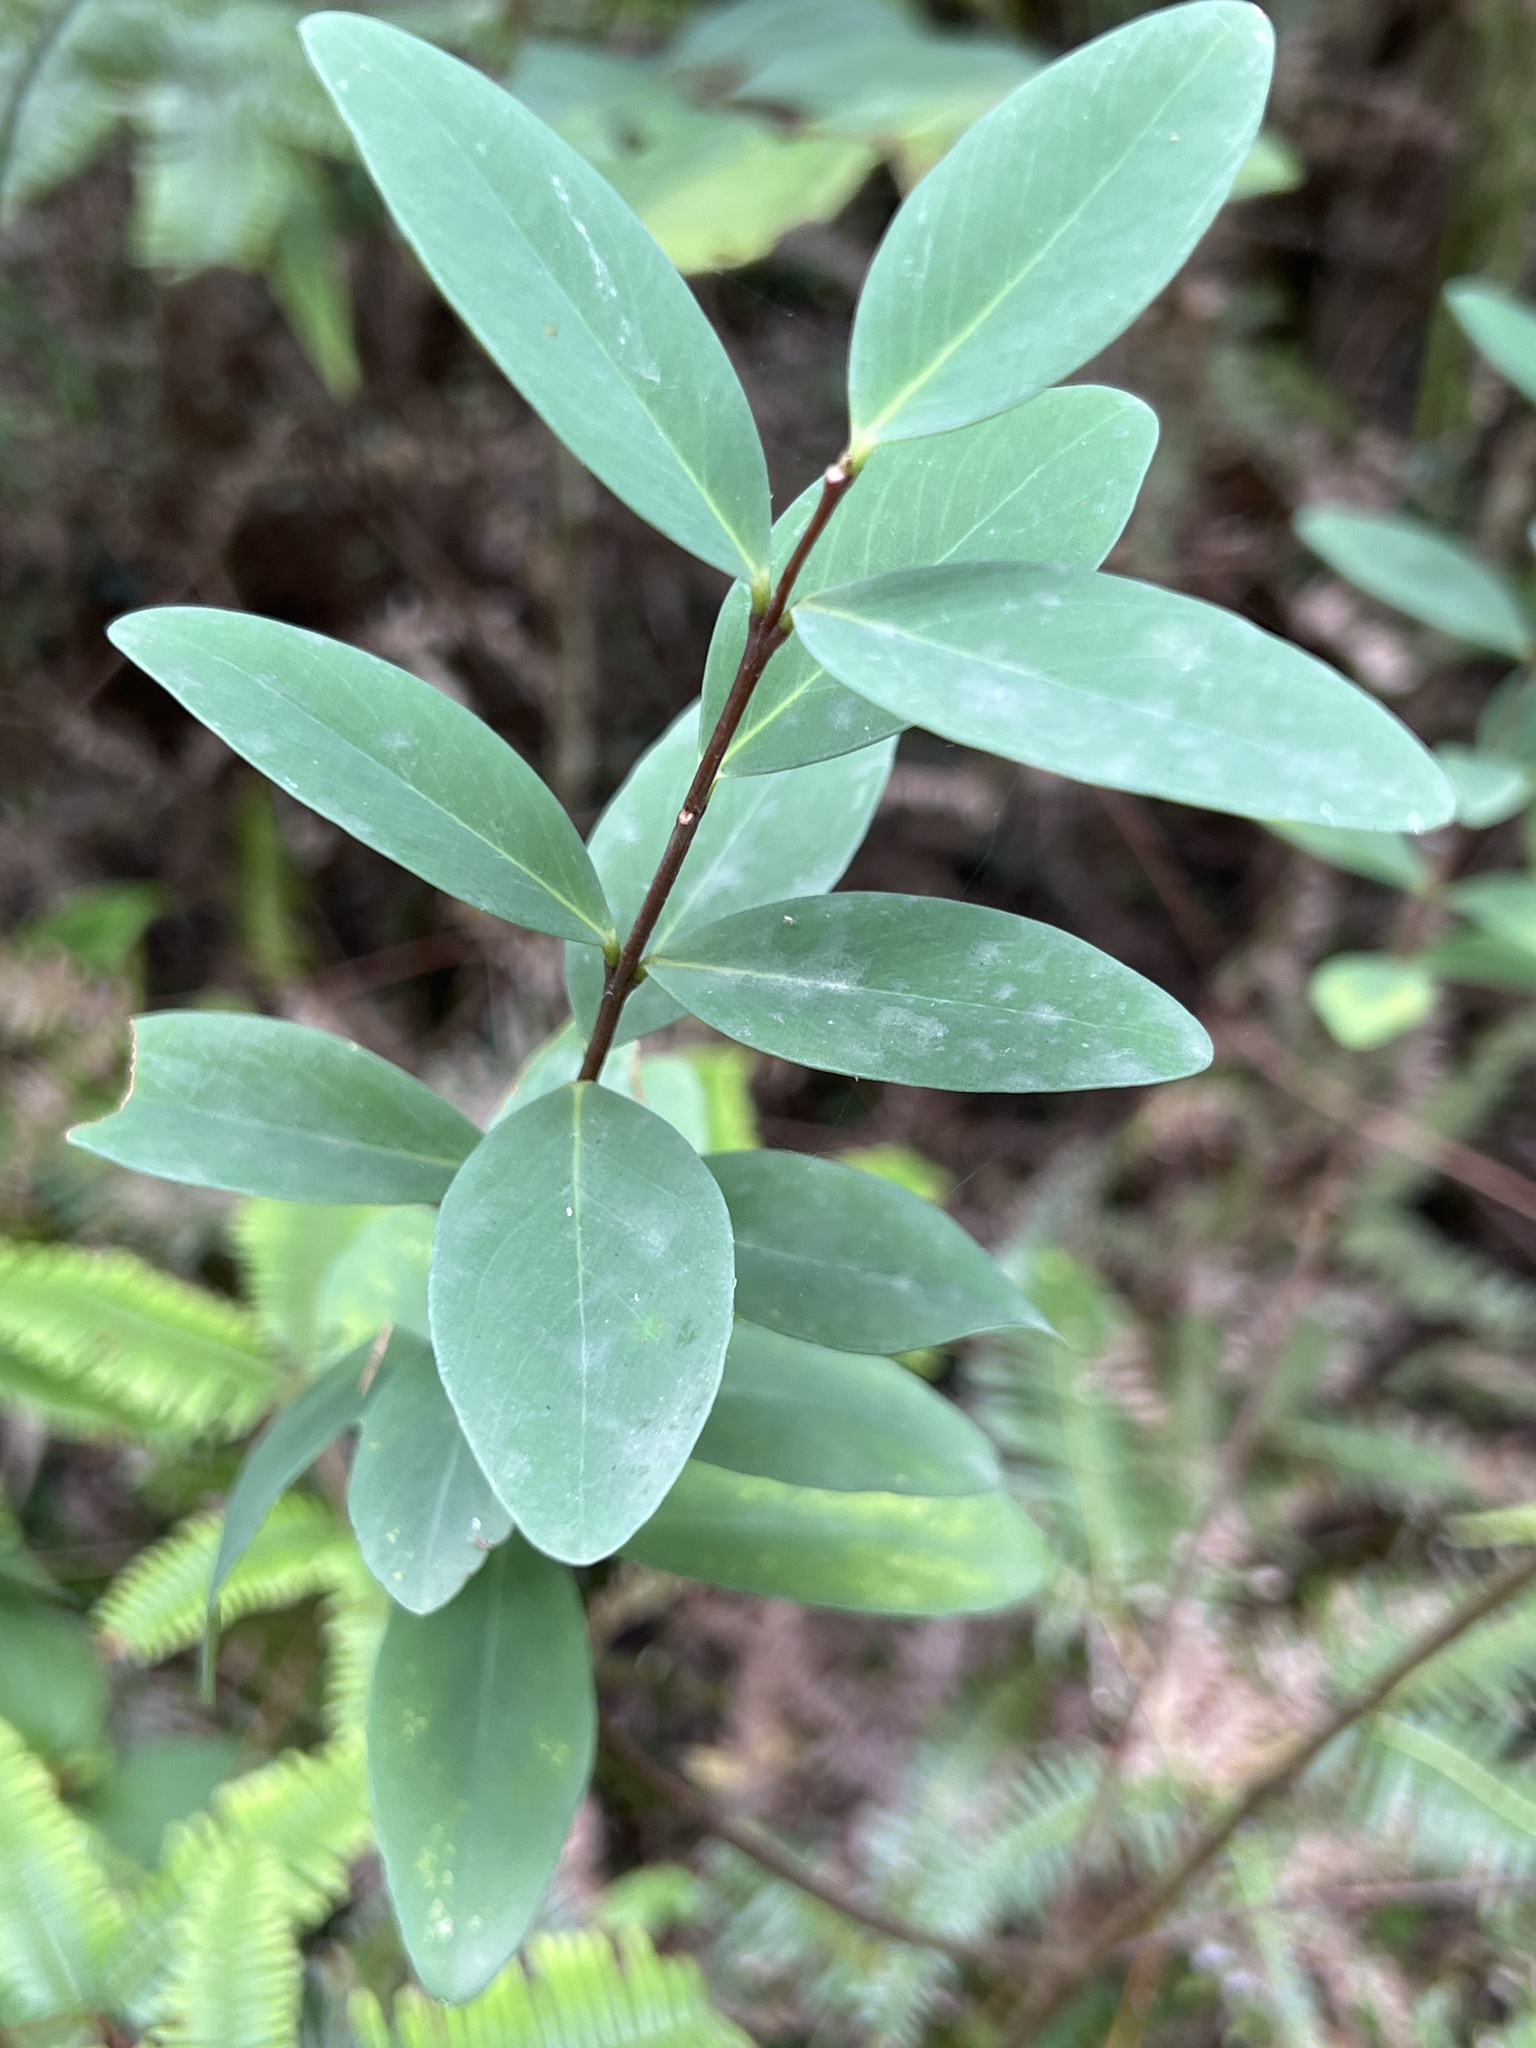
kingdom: Plantae
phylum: Tracheophyta
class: Magnoliopsida
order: Malvales
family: Thymelaeaceae
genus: Wikstroemia
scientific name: Wikstroemia indica
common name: Tiebush
